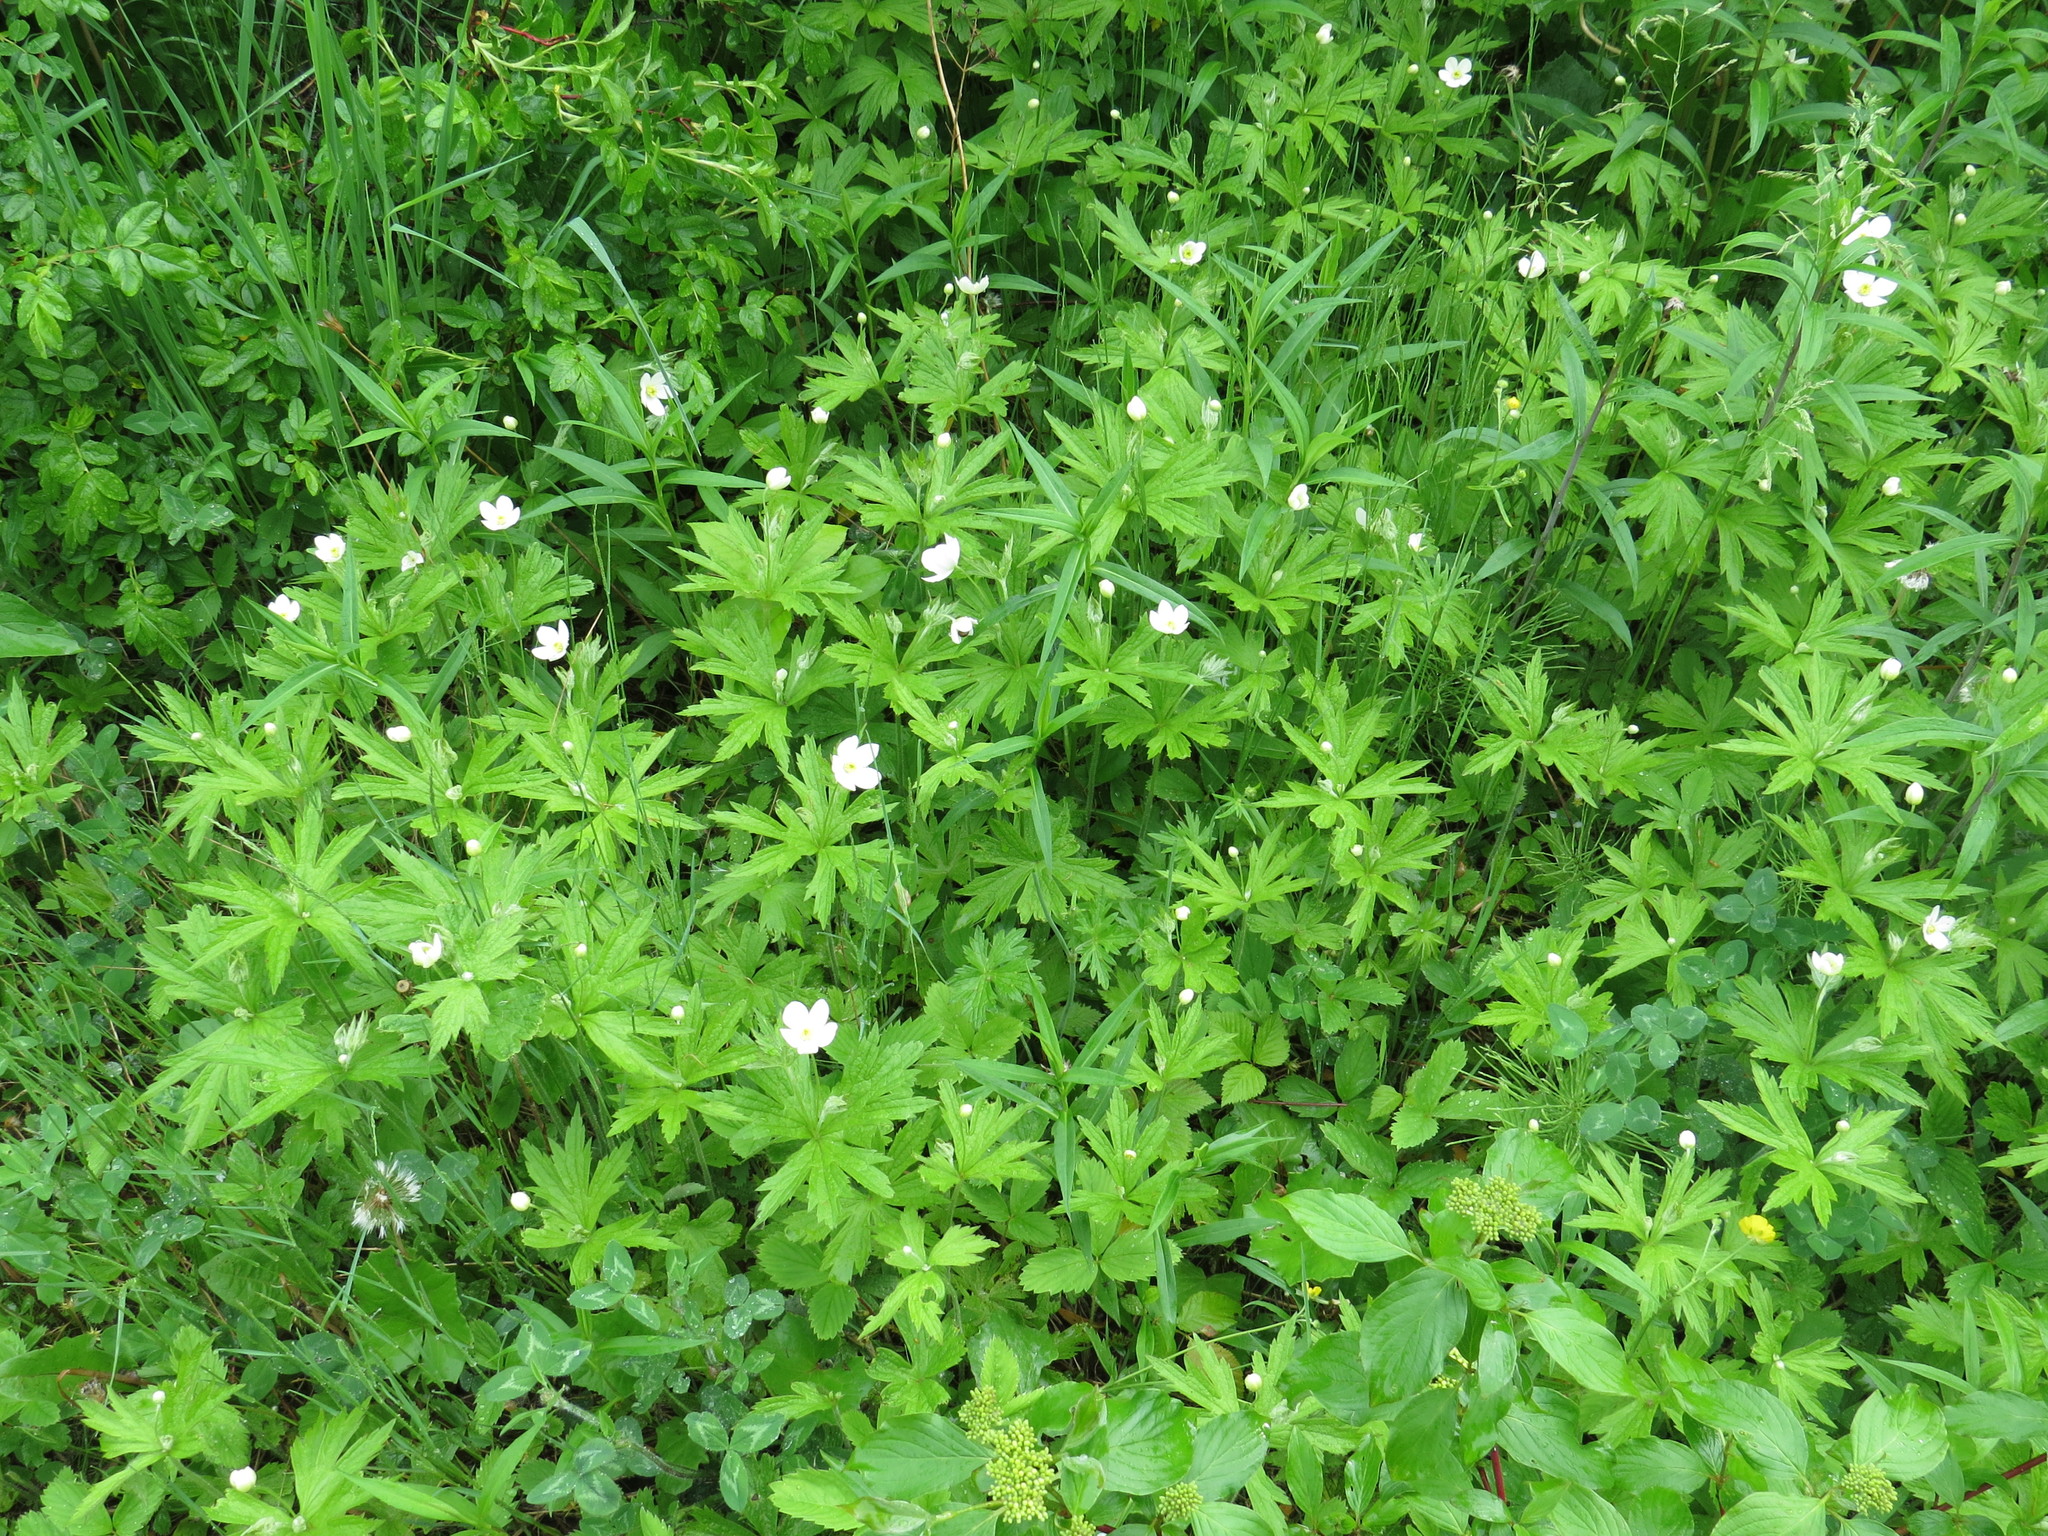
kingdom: Plantae
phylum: Tracheophyta
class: Magnoliopsida
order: Ranunculales
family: Ranunculaceae
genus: Anemonastrum
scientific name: Anemonastrum canadense
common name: Canada anemone
